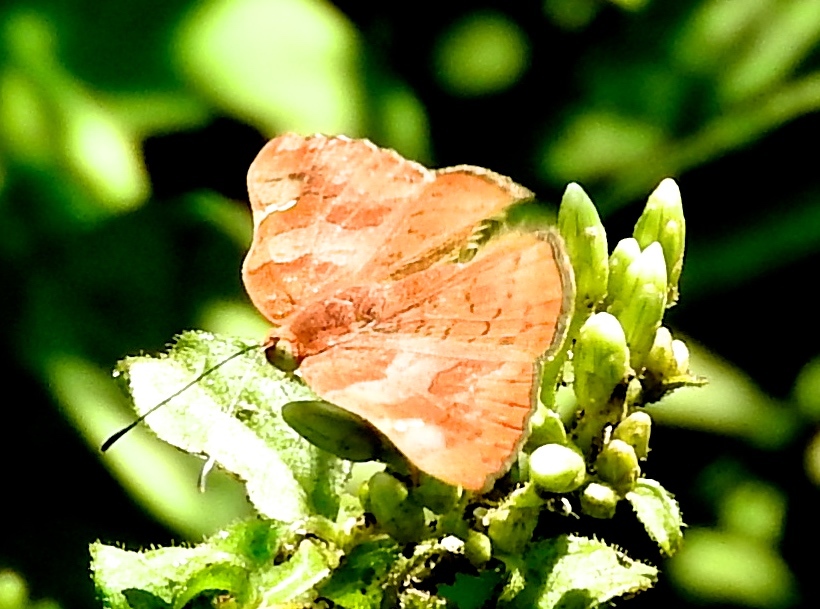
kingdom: Animalia
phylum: Arthropoda
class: Insecta
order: Lepidoptera
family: Riodinidae
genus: Curvie
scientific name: Curvie emesia
